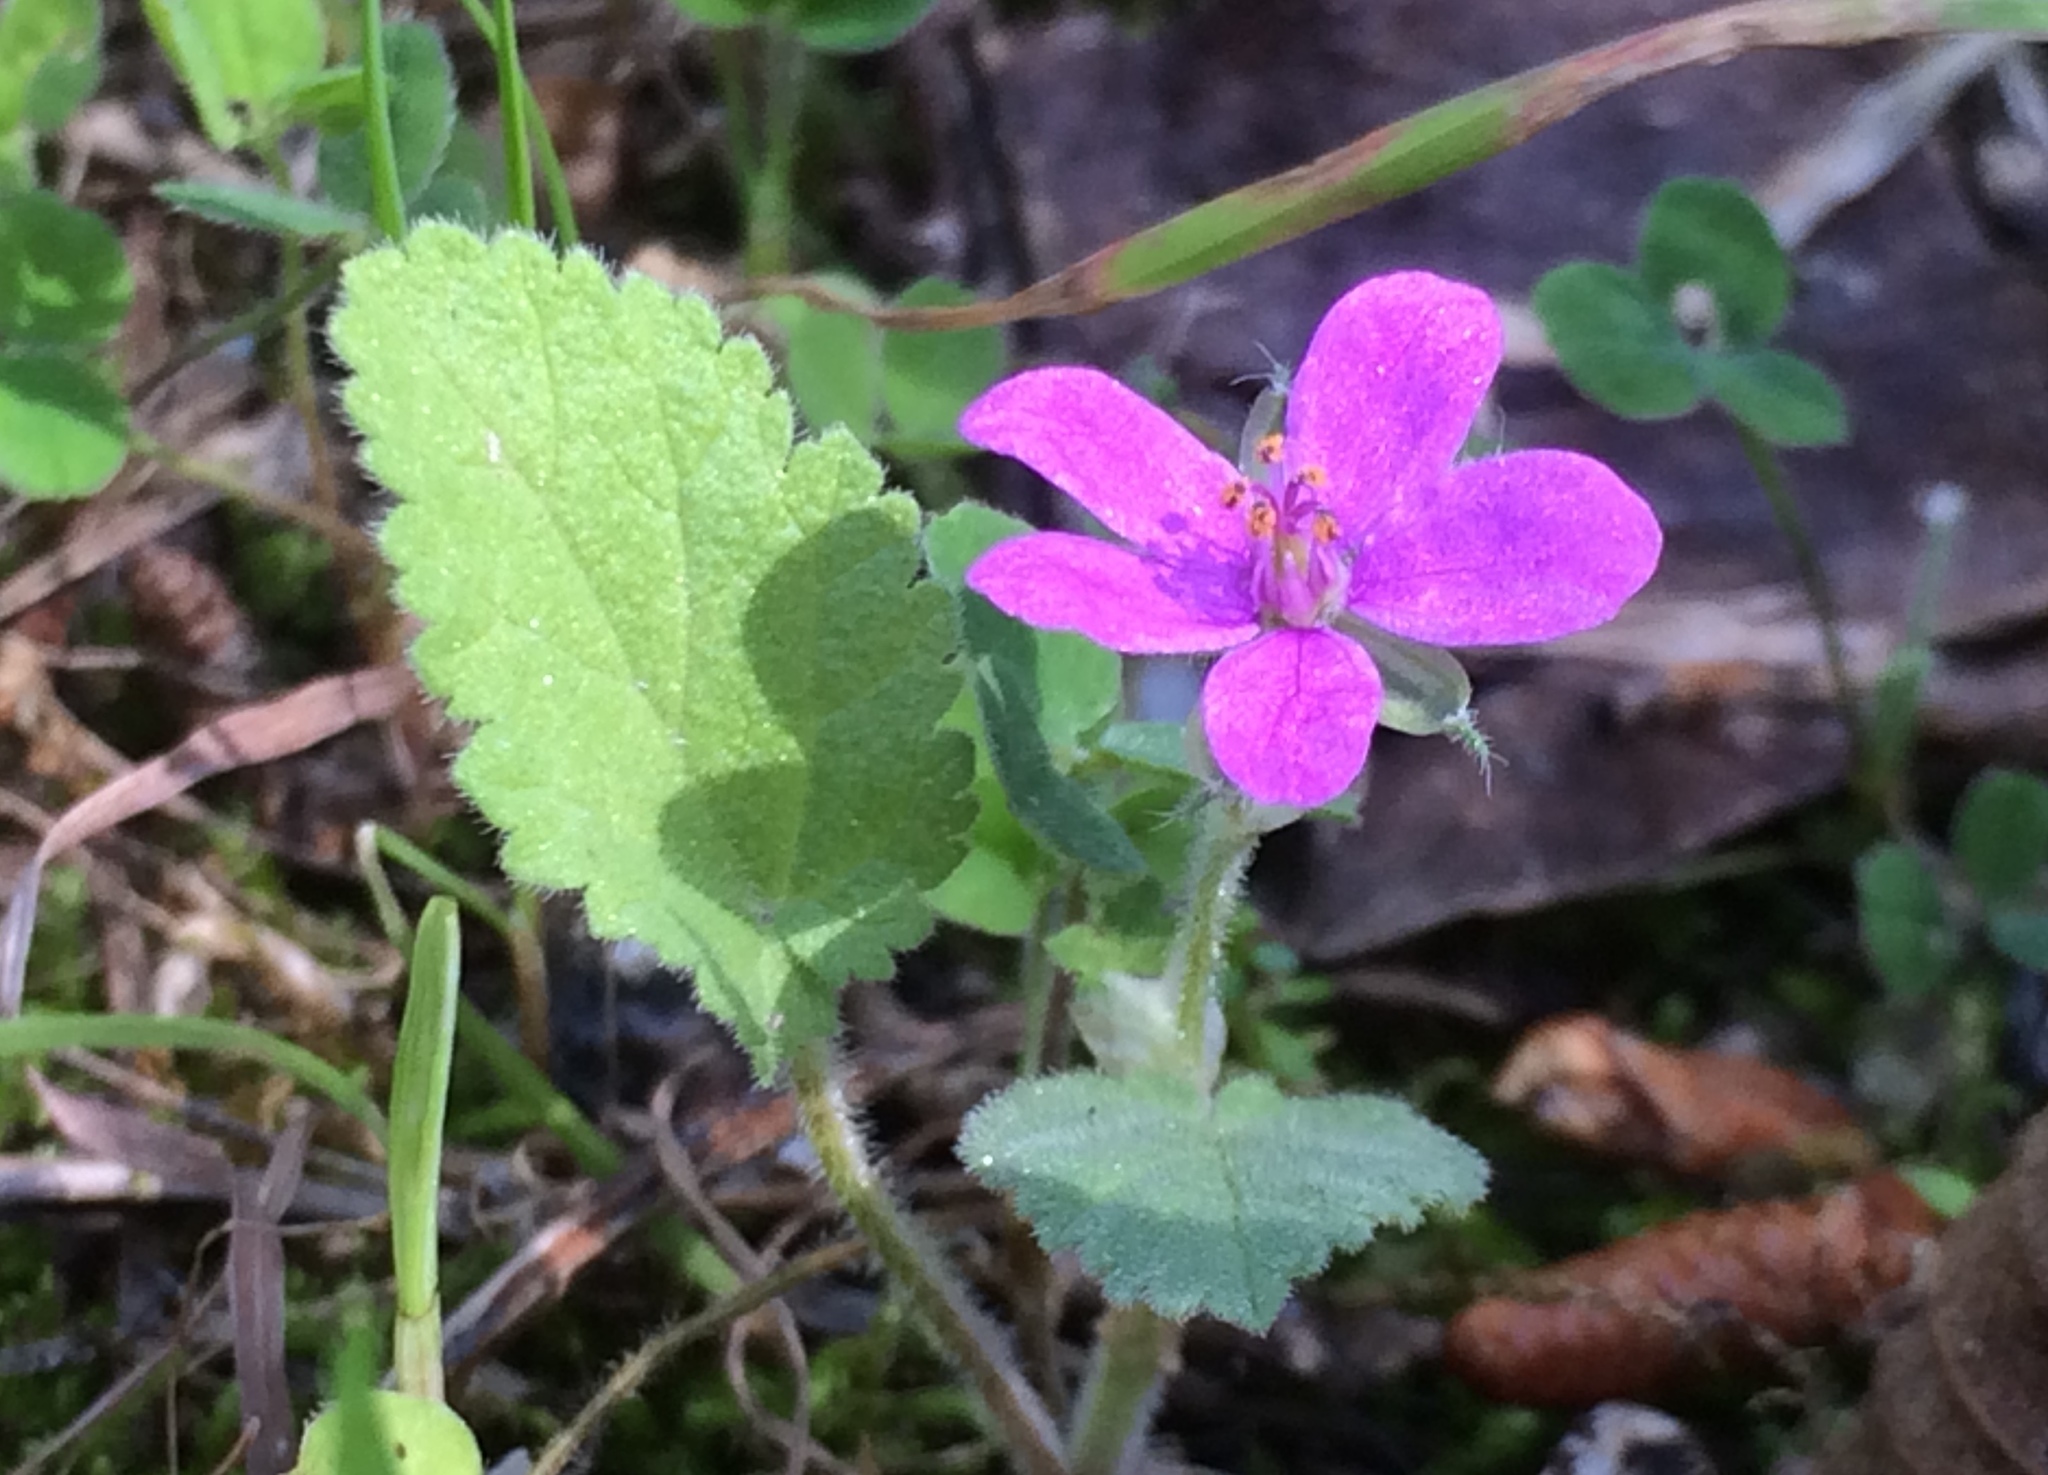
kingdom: Plantae
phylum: Tracheophyta
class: Magnoliopsida
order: Geraniales
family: Geraniaceae
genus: Erodium
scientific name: Erodium malacoides
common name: Soft stork's-bill
